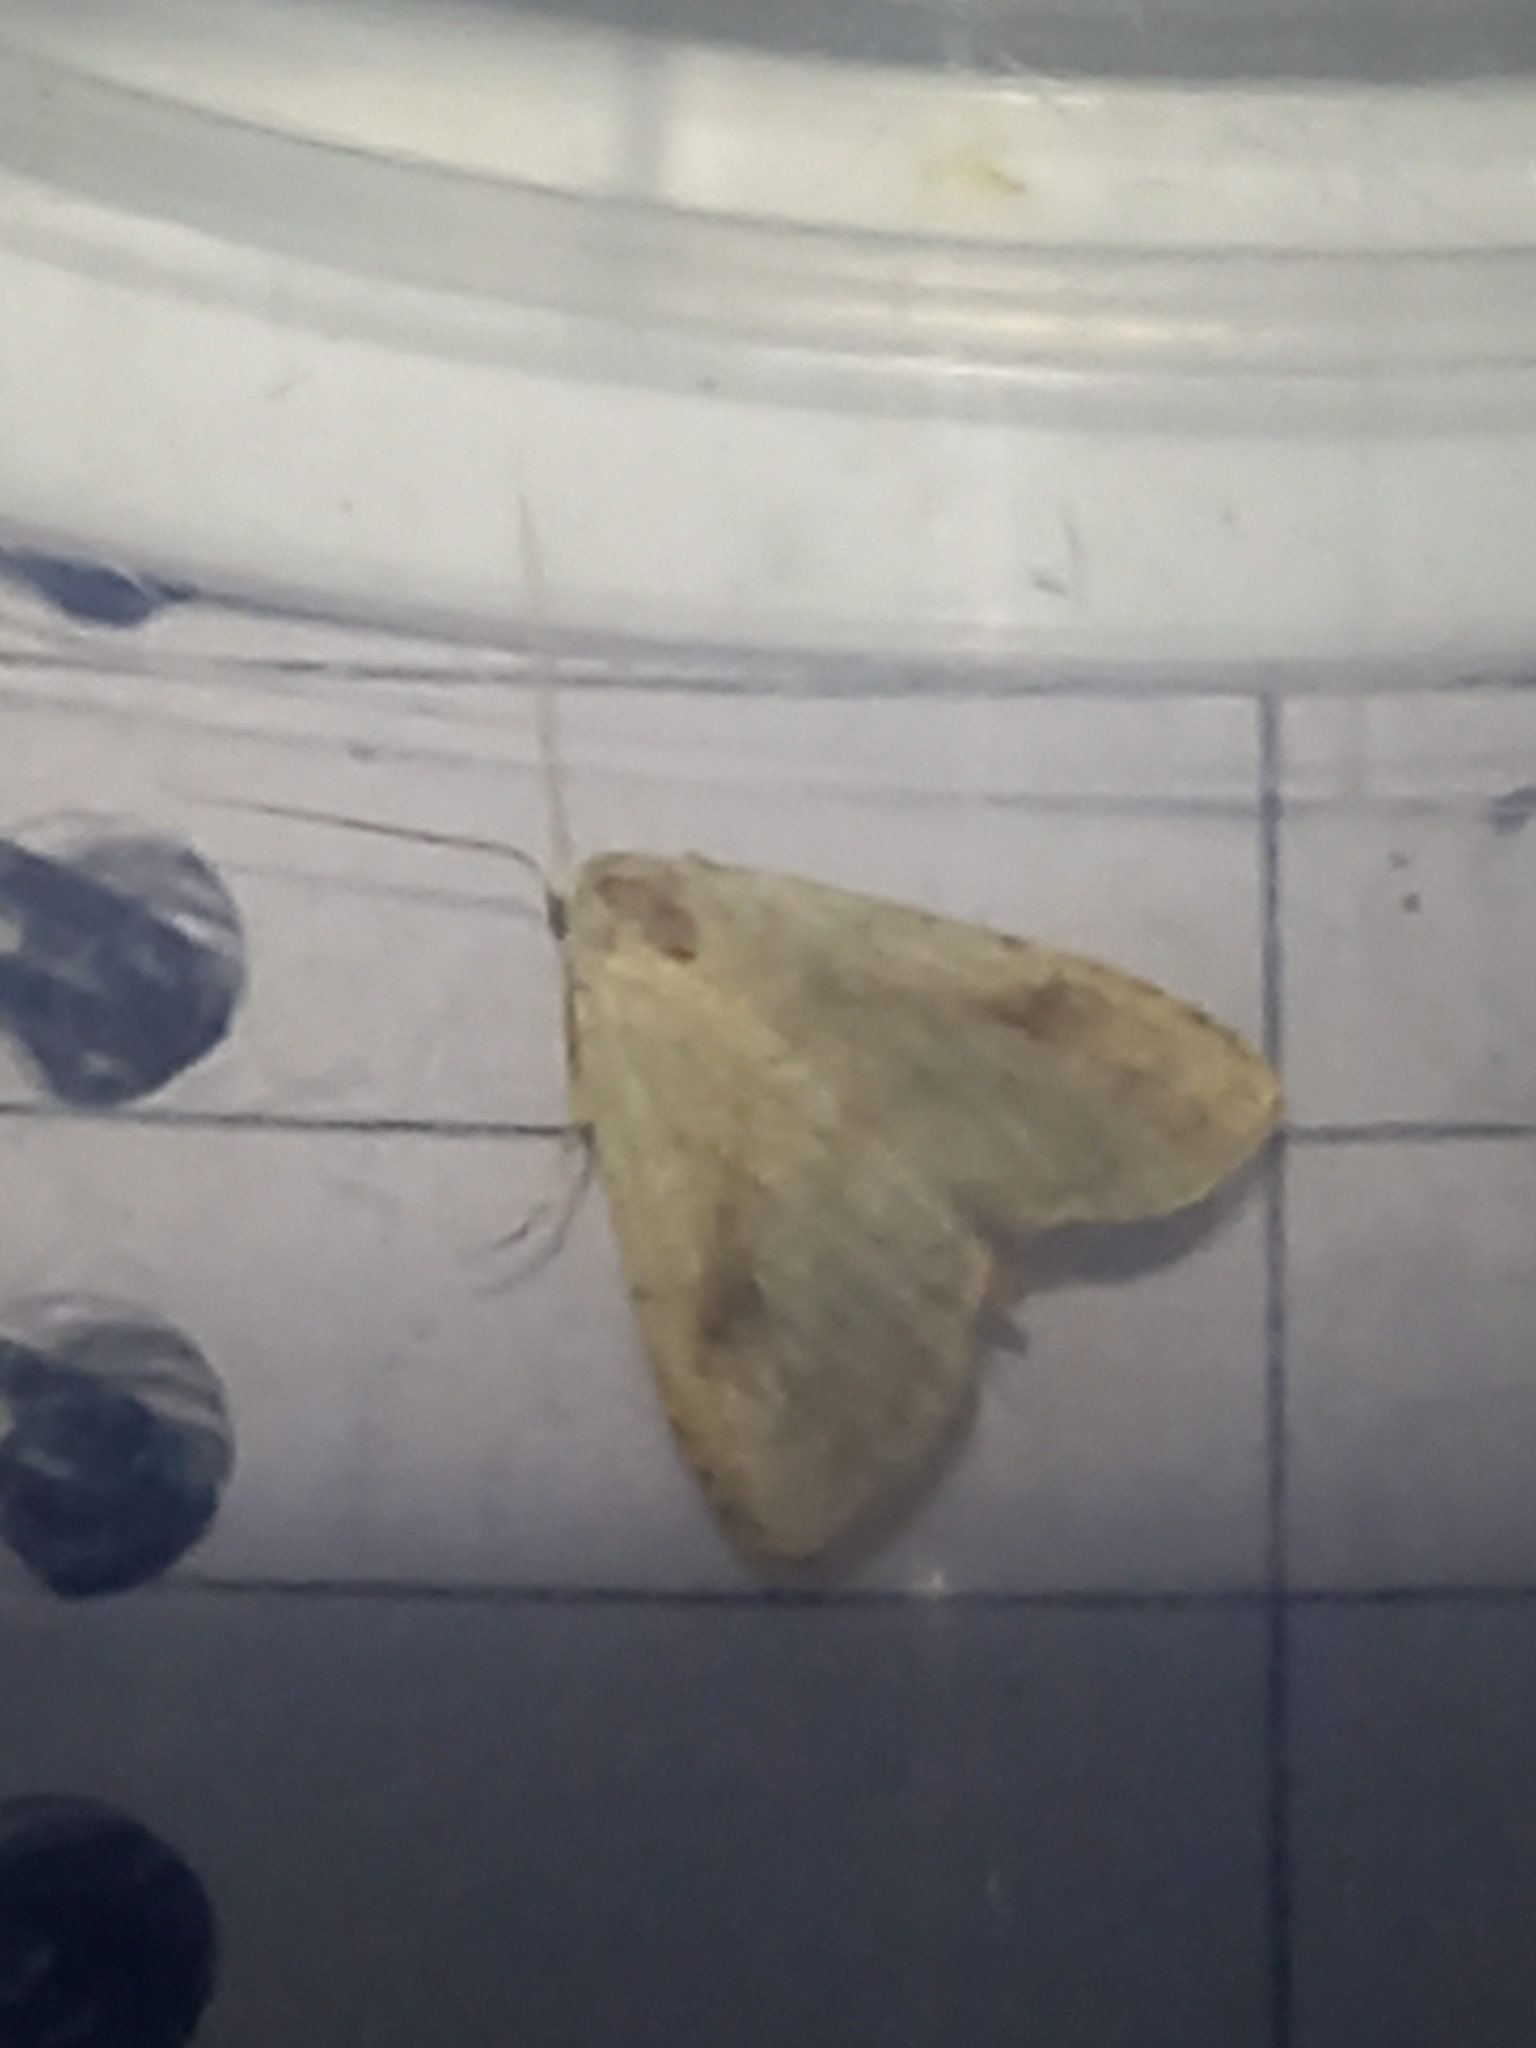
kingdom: Animalia
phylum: Arthropoda
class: Insecta
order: Lepidoptera
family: Erebidae
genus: Rivula
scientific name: Rivula sericealis
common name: Straw dot
